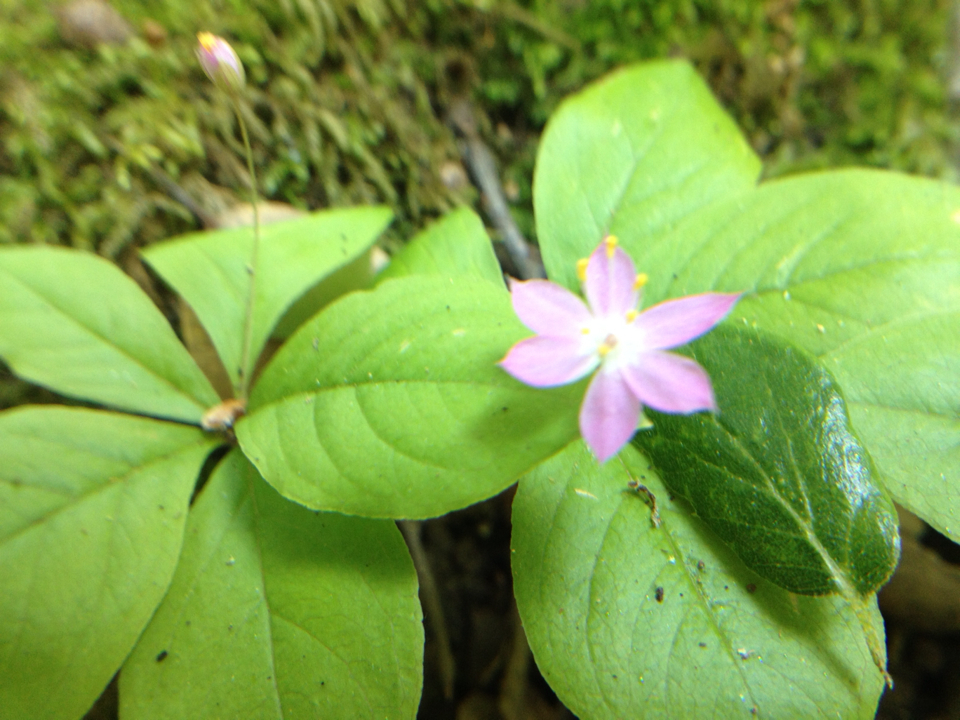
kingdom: Plantae
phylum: Tracheophyta
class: Magnoliopsida
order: Ericales
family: Primulaceae
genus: Lysimachia
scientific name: Lysimachia latifolia
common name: Pacific starflower
